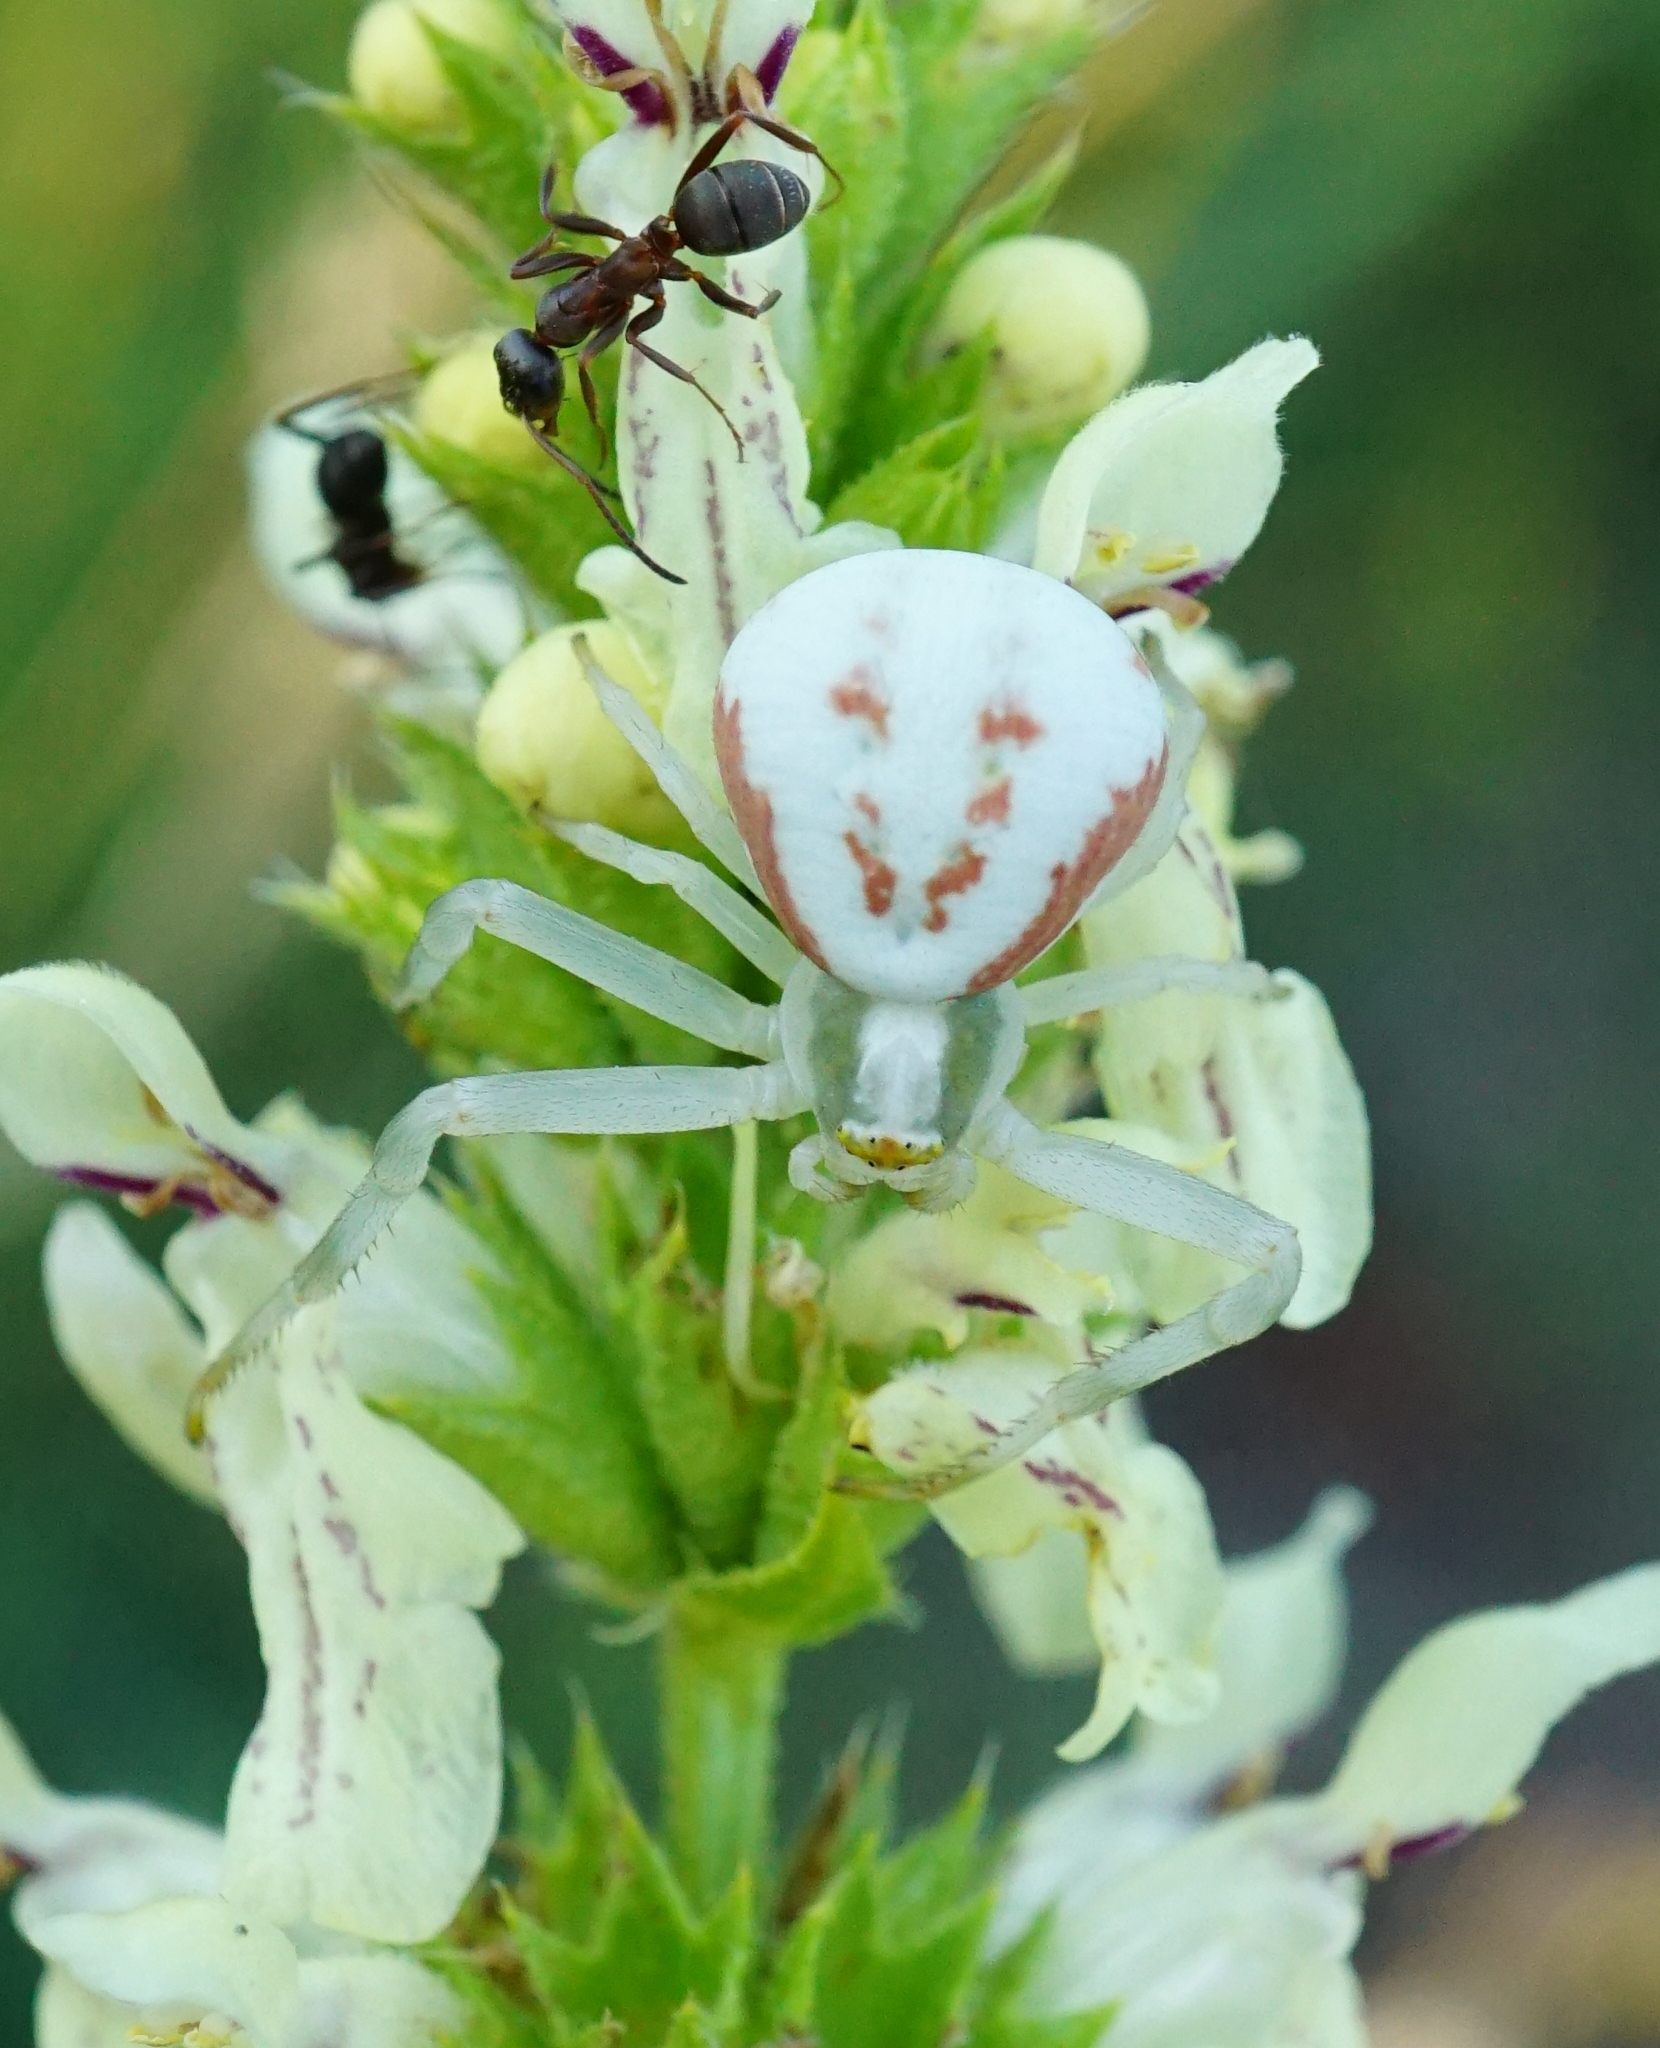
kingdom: Animalia
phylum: Arthropoda
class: Arachnida
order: Araneae
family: Thomisidae
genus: Misumena
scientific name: Misumena vatia
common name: Goldenrod crab spider
